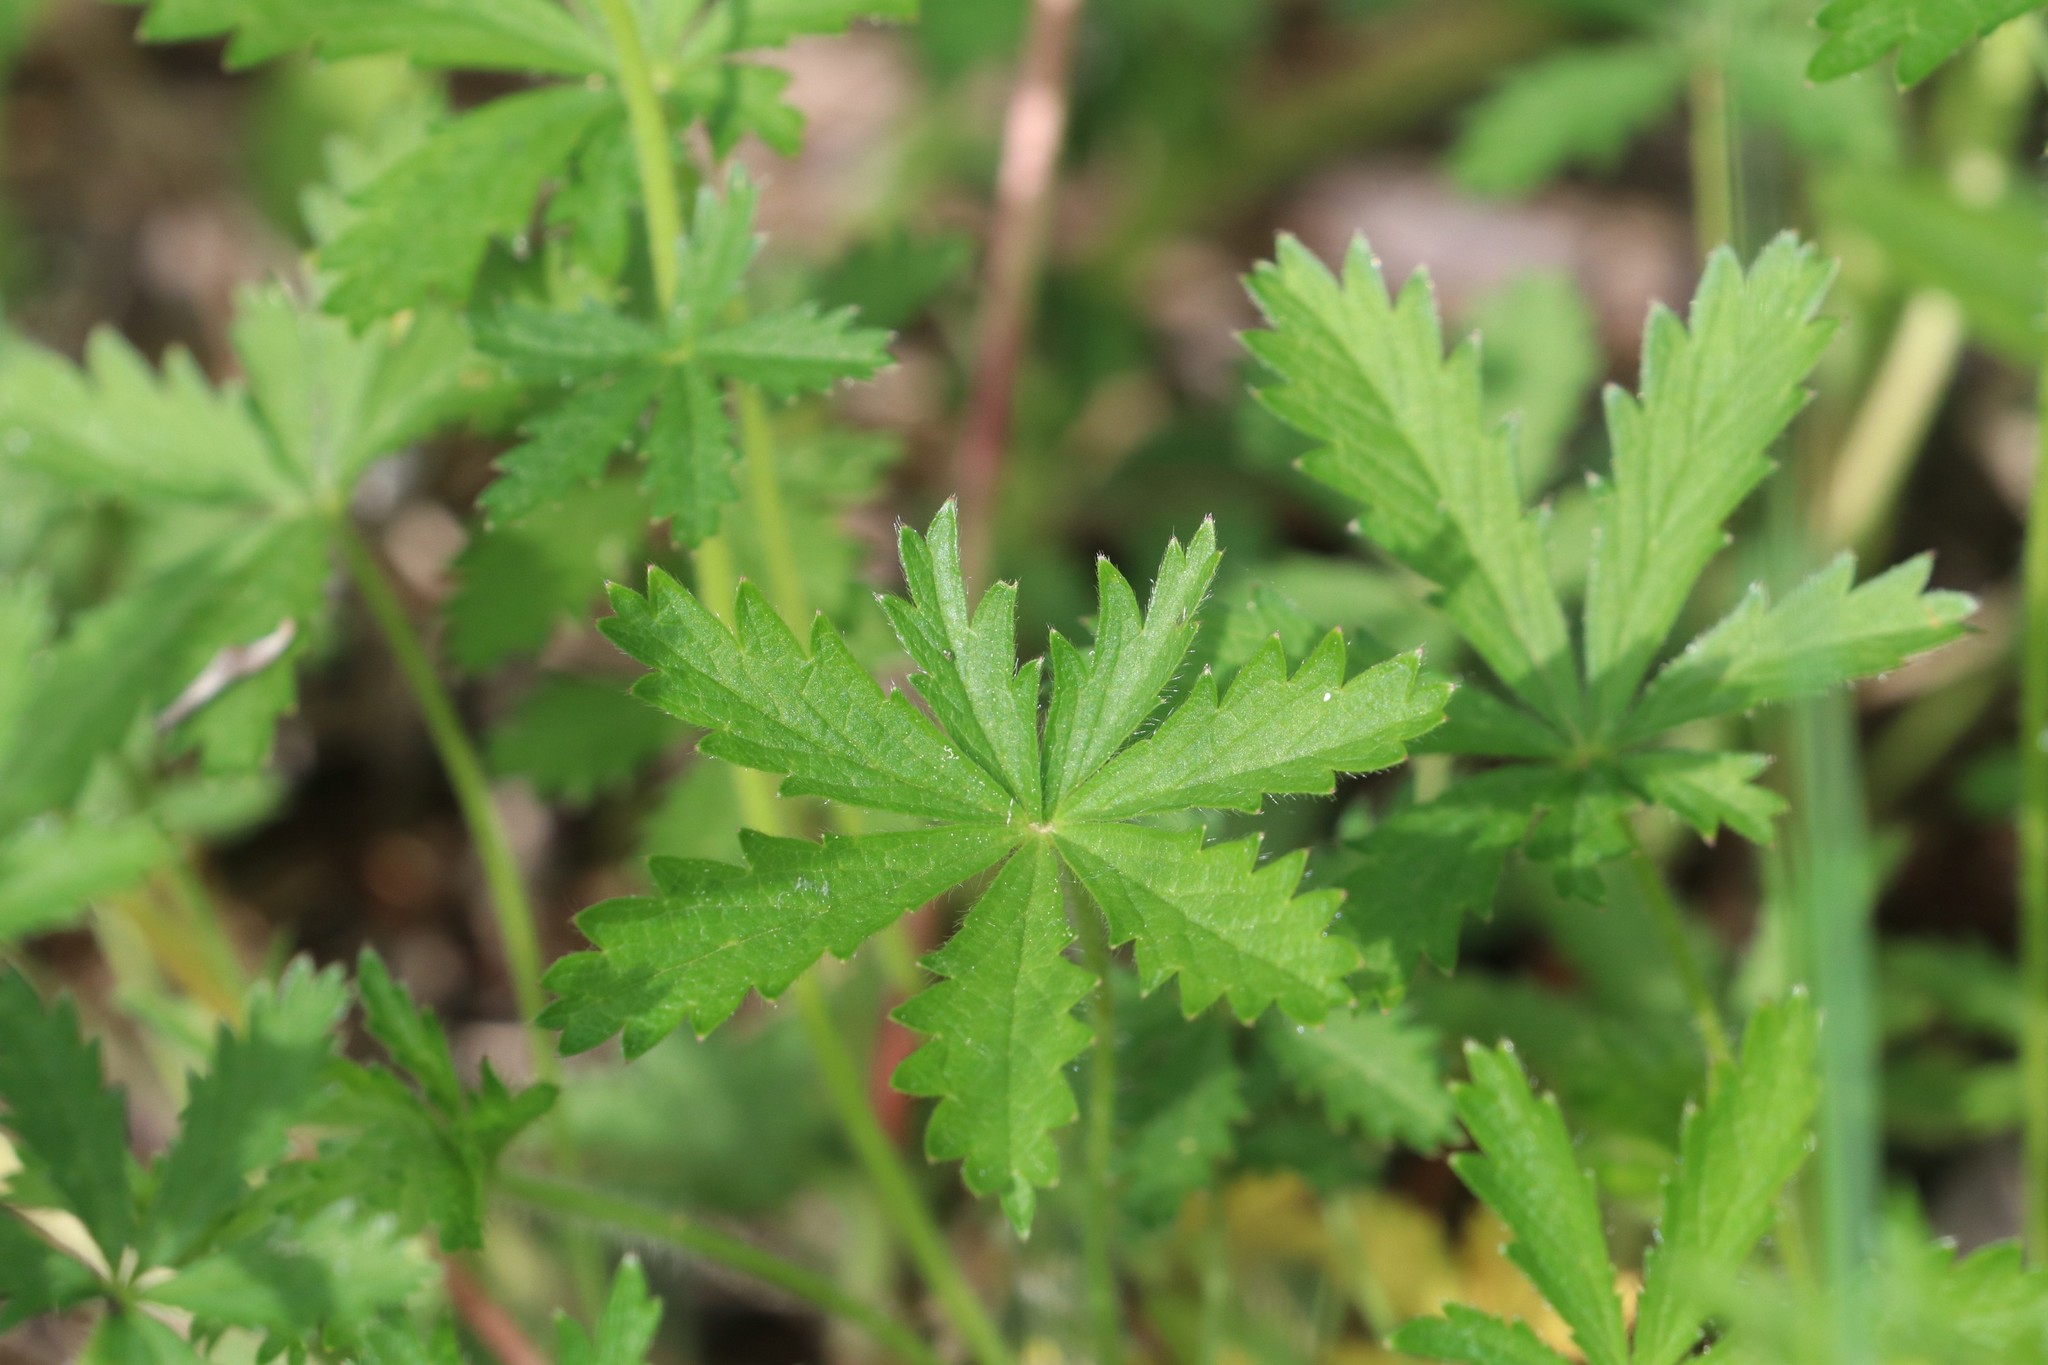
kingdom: Plantae
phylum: Tracheophyta
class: Magnoliopsida
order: Rosales
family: Rosaceae
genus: Potentilla
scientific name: Potentilla thuringiaca
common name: European cinquefoil
